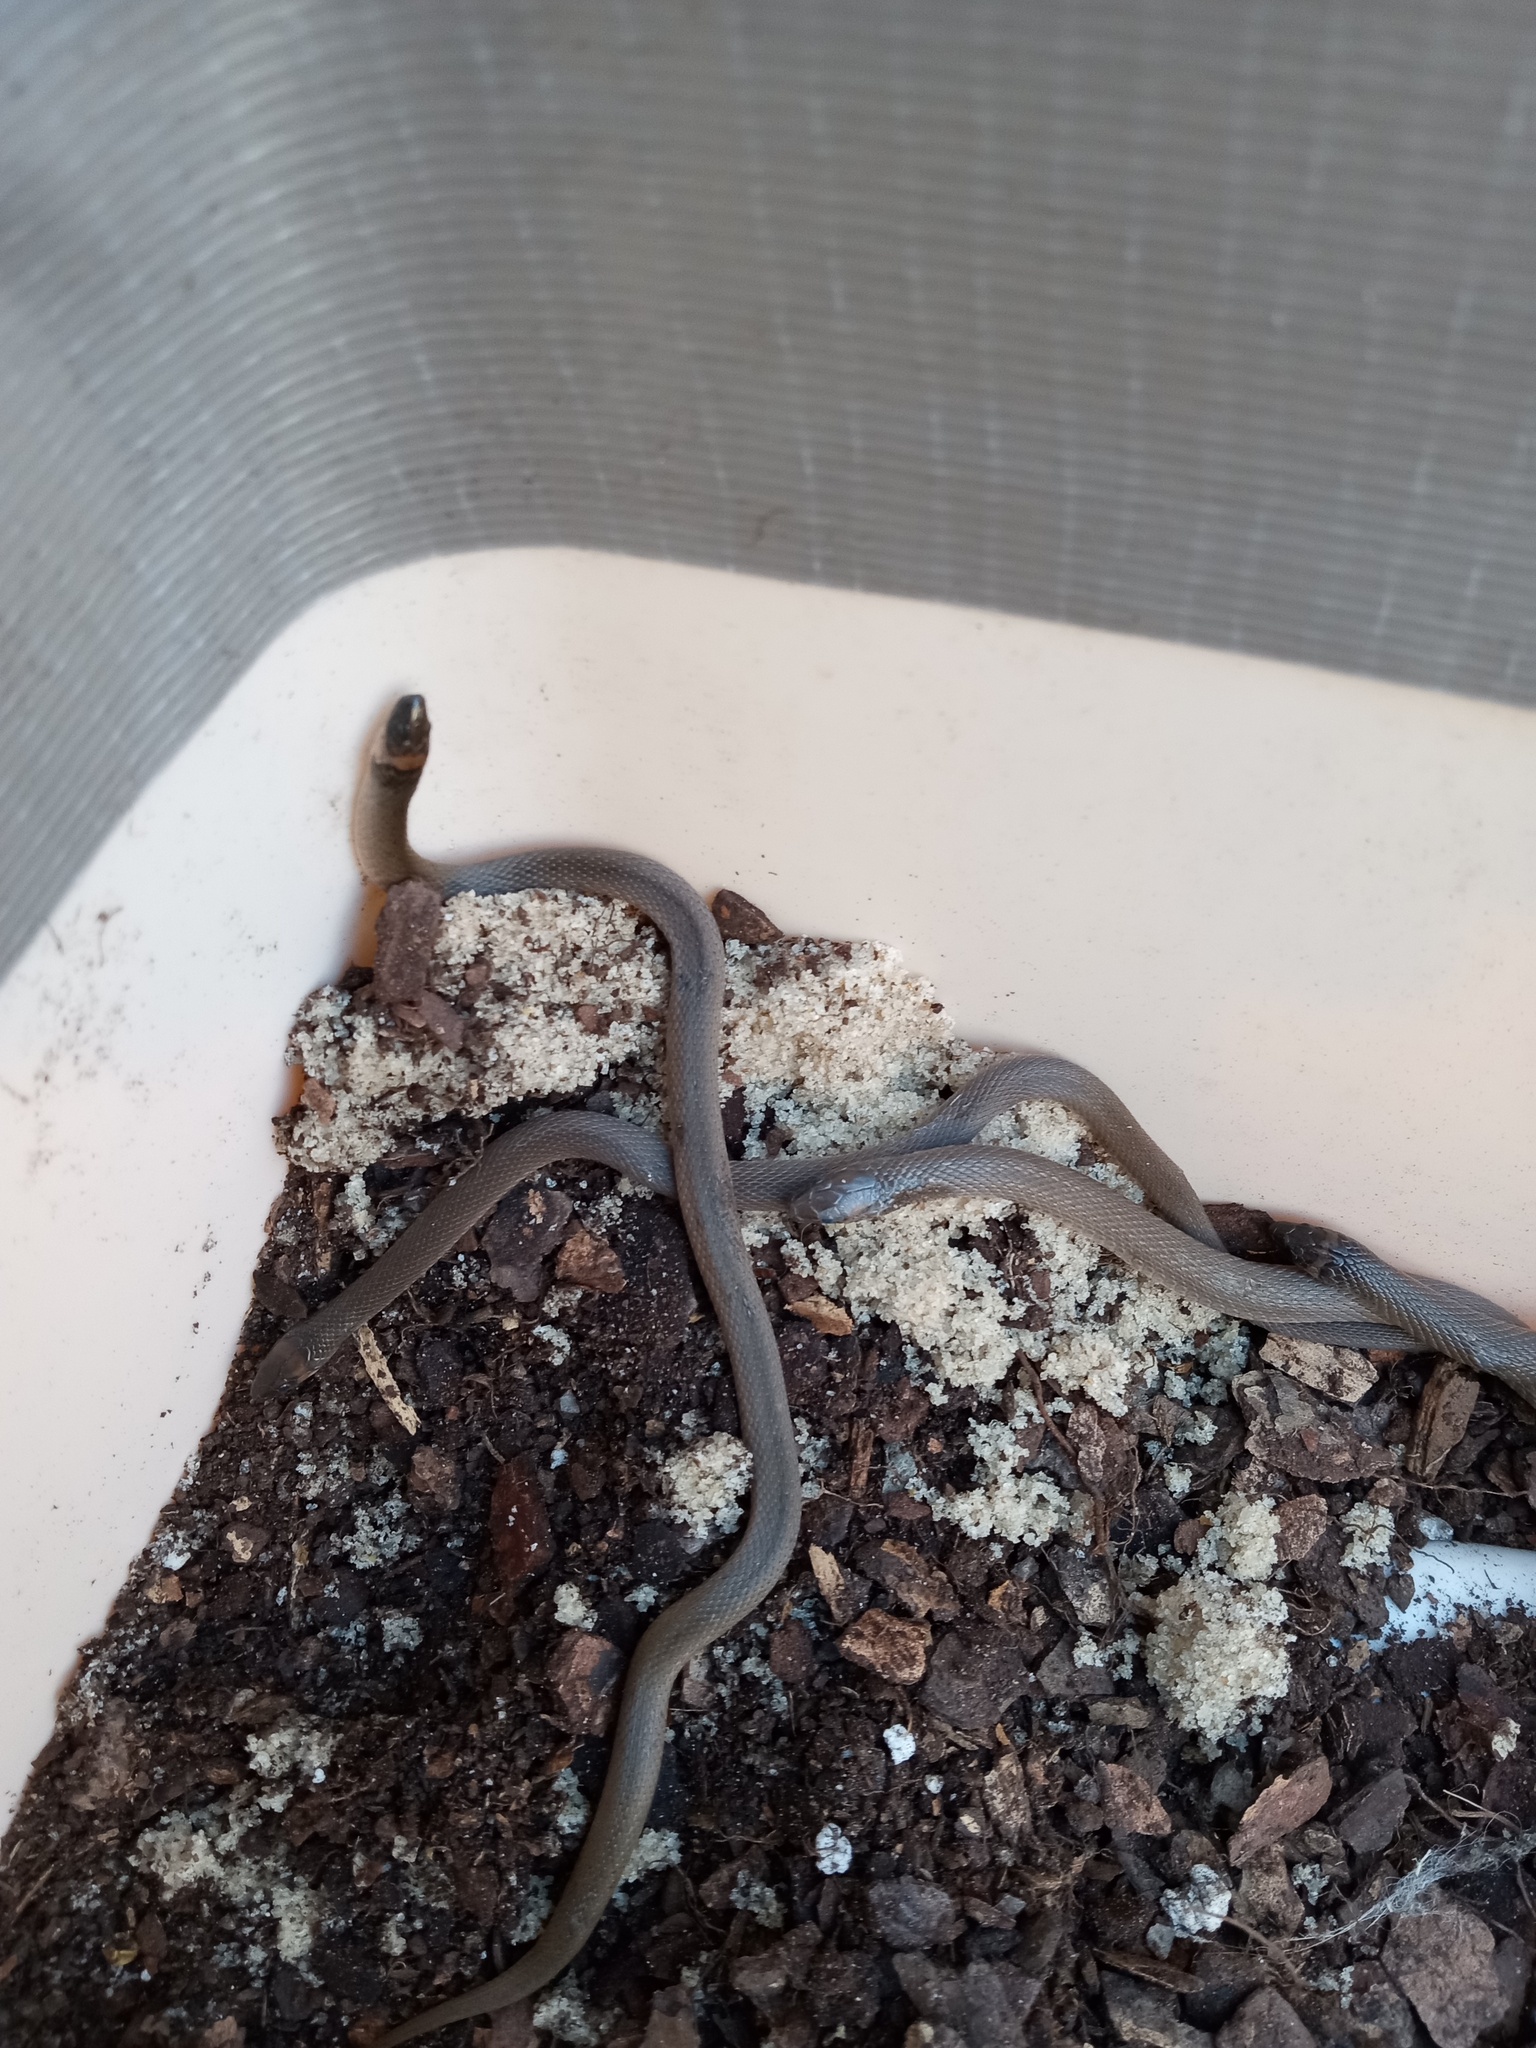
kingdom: Animalia
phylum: Chordata
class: Squamata
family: Colubridae
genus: Haldea
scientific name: Haldea striatula
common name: Rough earth snake
